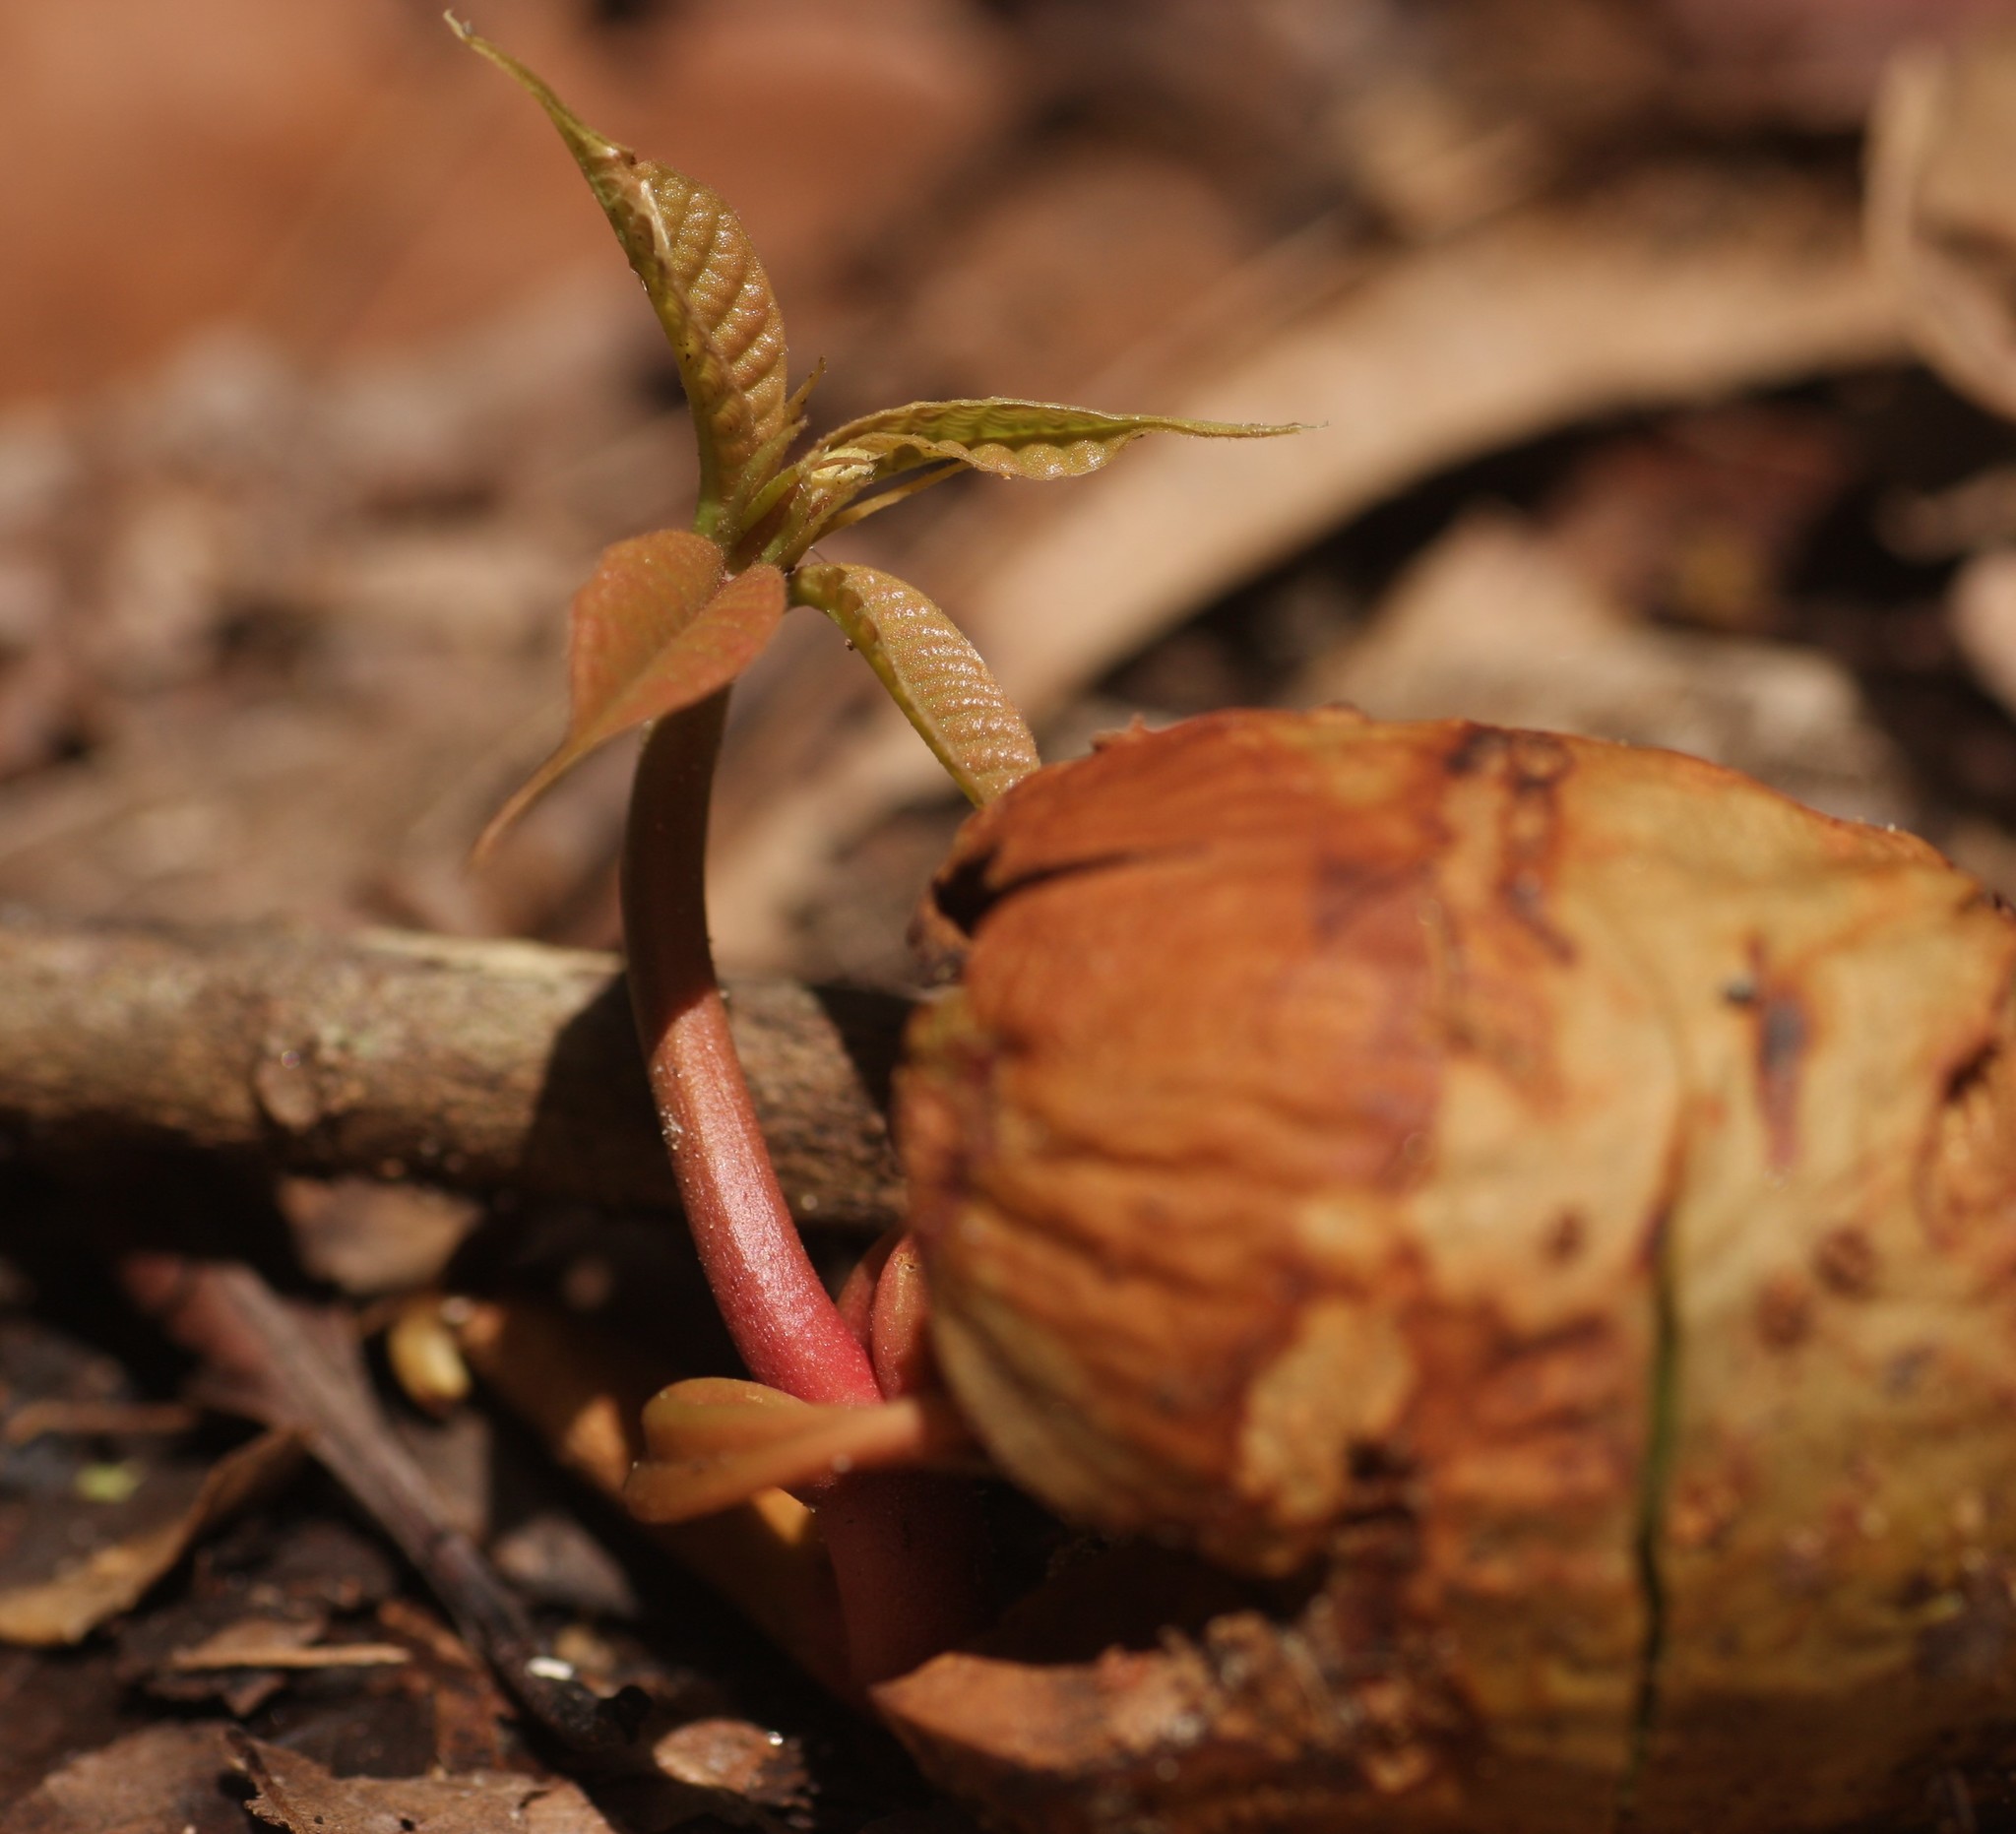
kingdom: Plantae
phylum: Tracheophyta
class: Magnoliopsida
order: Malvales
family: Dipterocarpaceae
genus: Vateria
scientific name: Vateria indica
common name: White dammar
